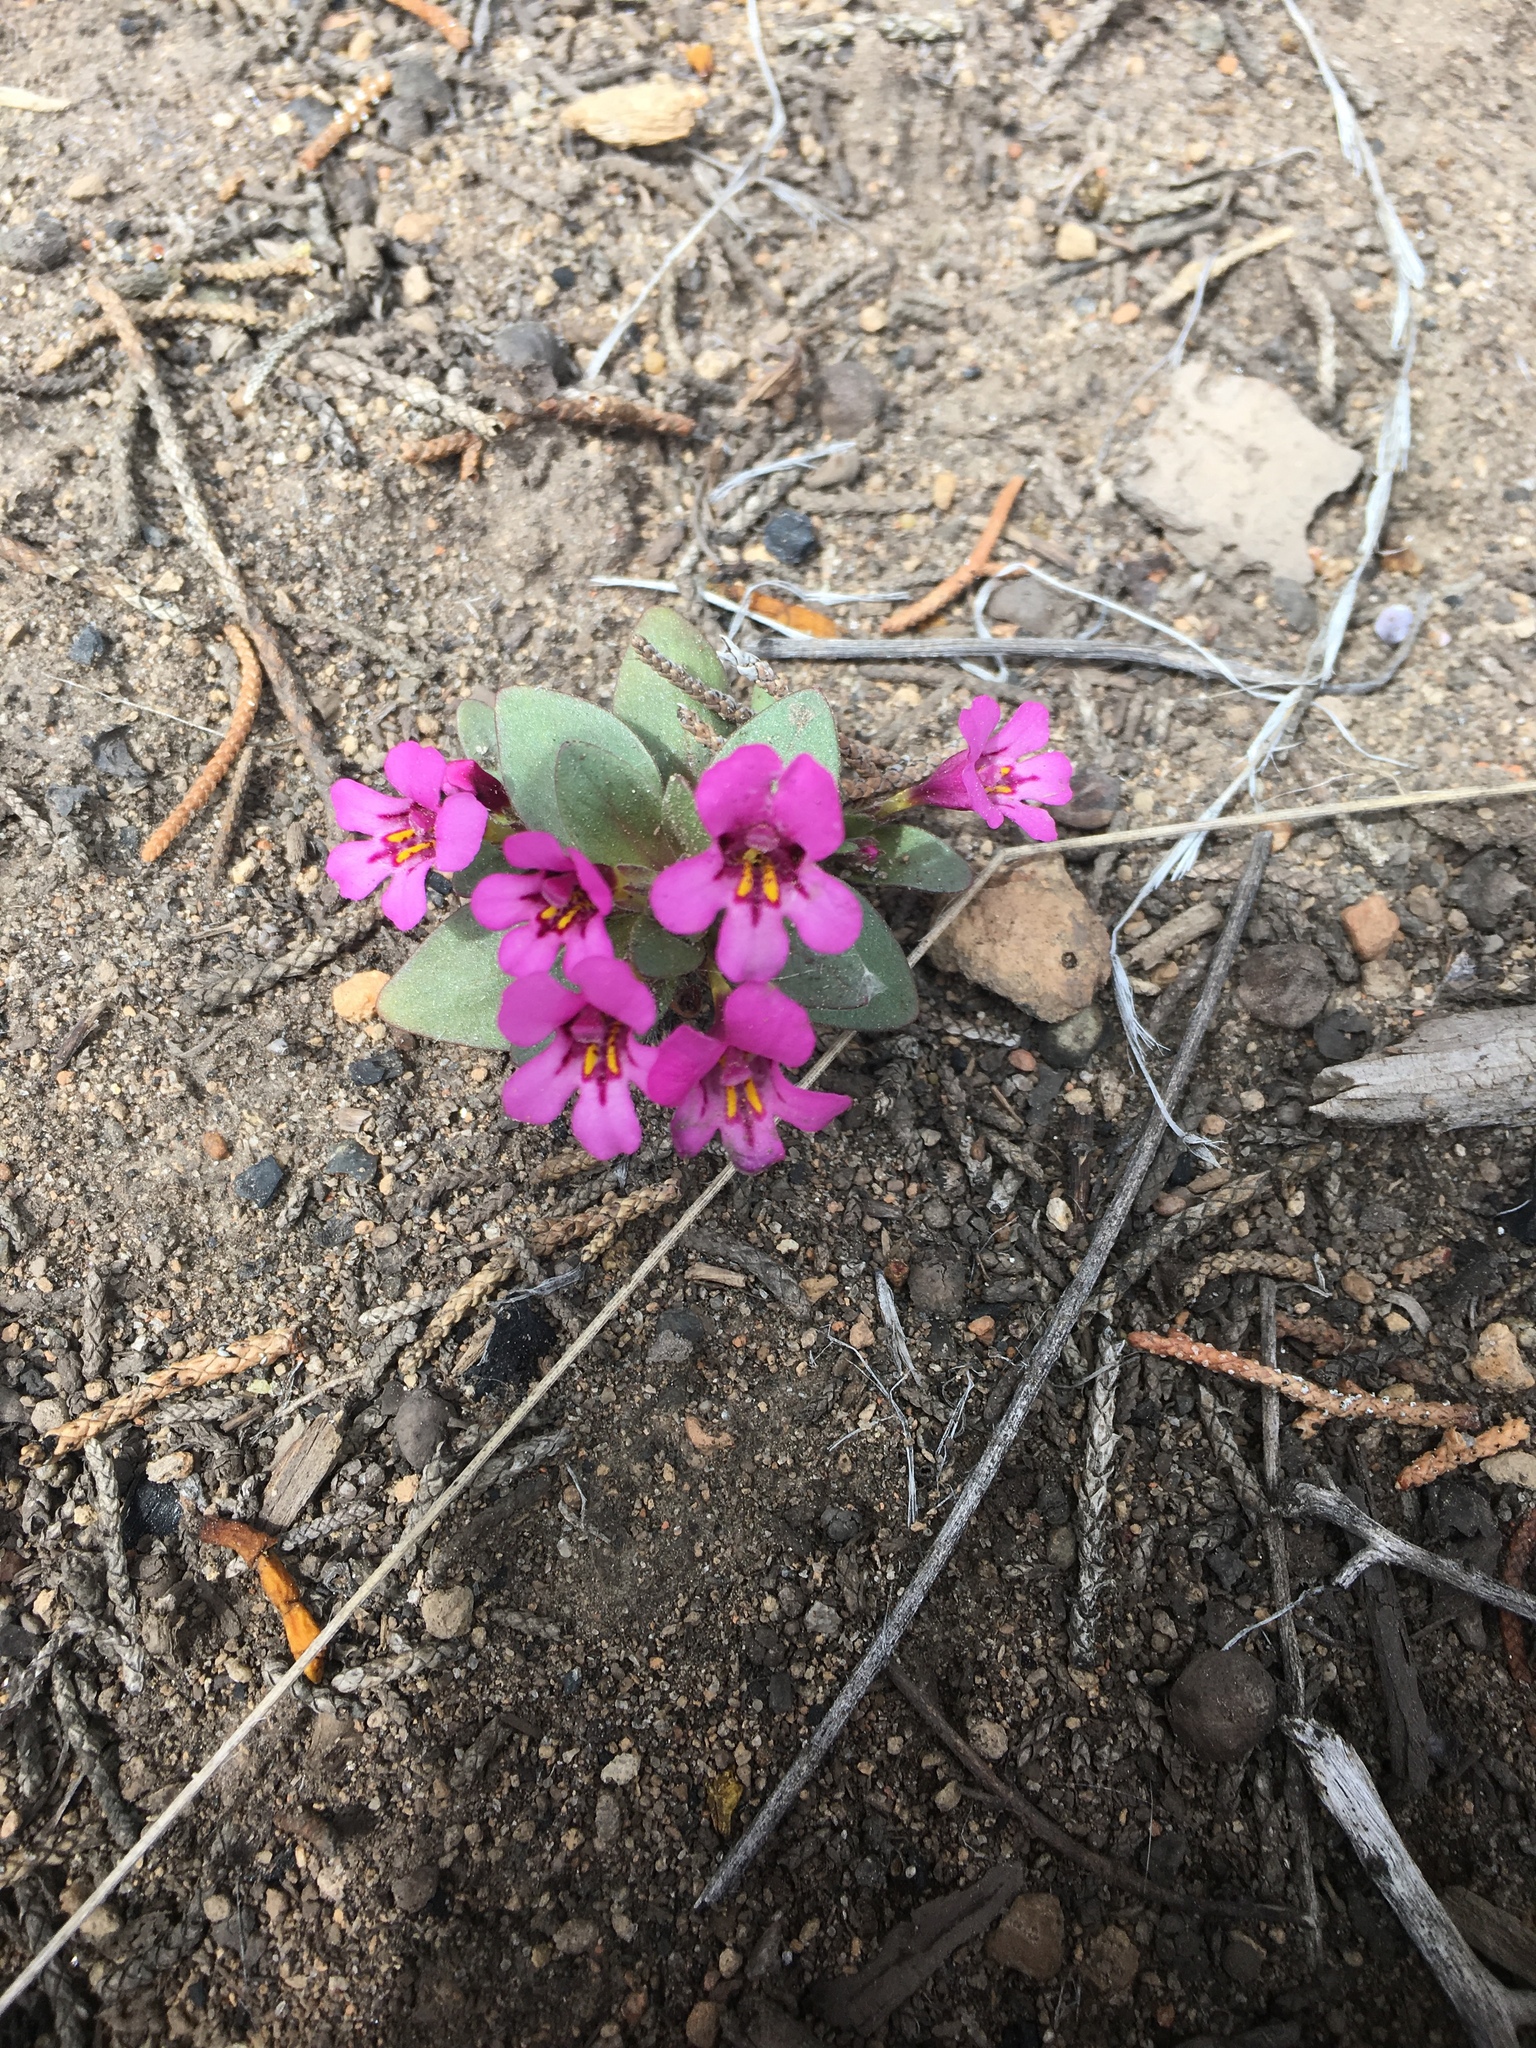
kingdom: Plantae
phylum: Tracheophyta
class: Magnoliopsida
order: Lamiales
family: Phrymaceae
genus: Diplacus
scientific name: Diplacus nanus
